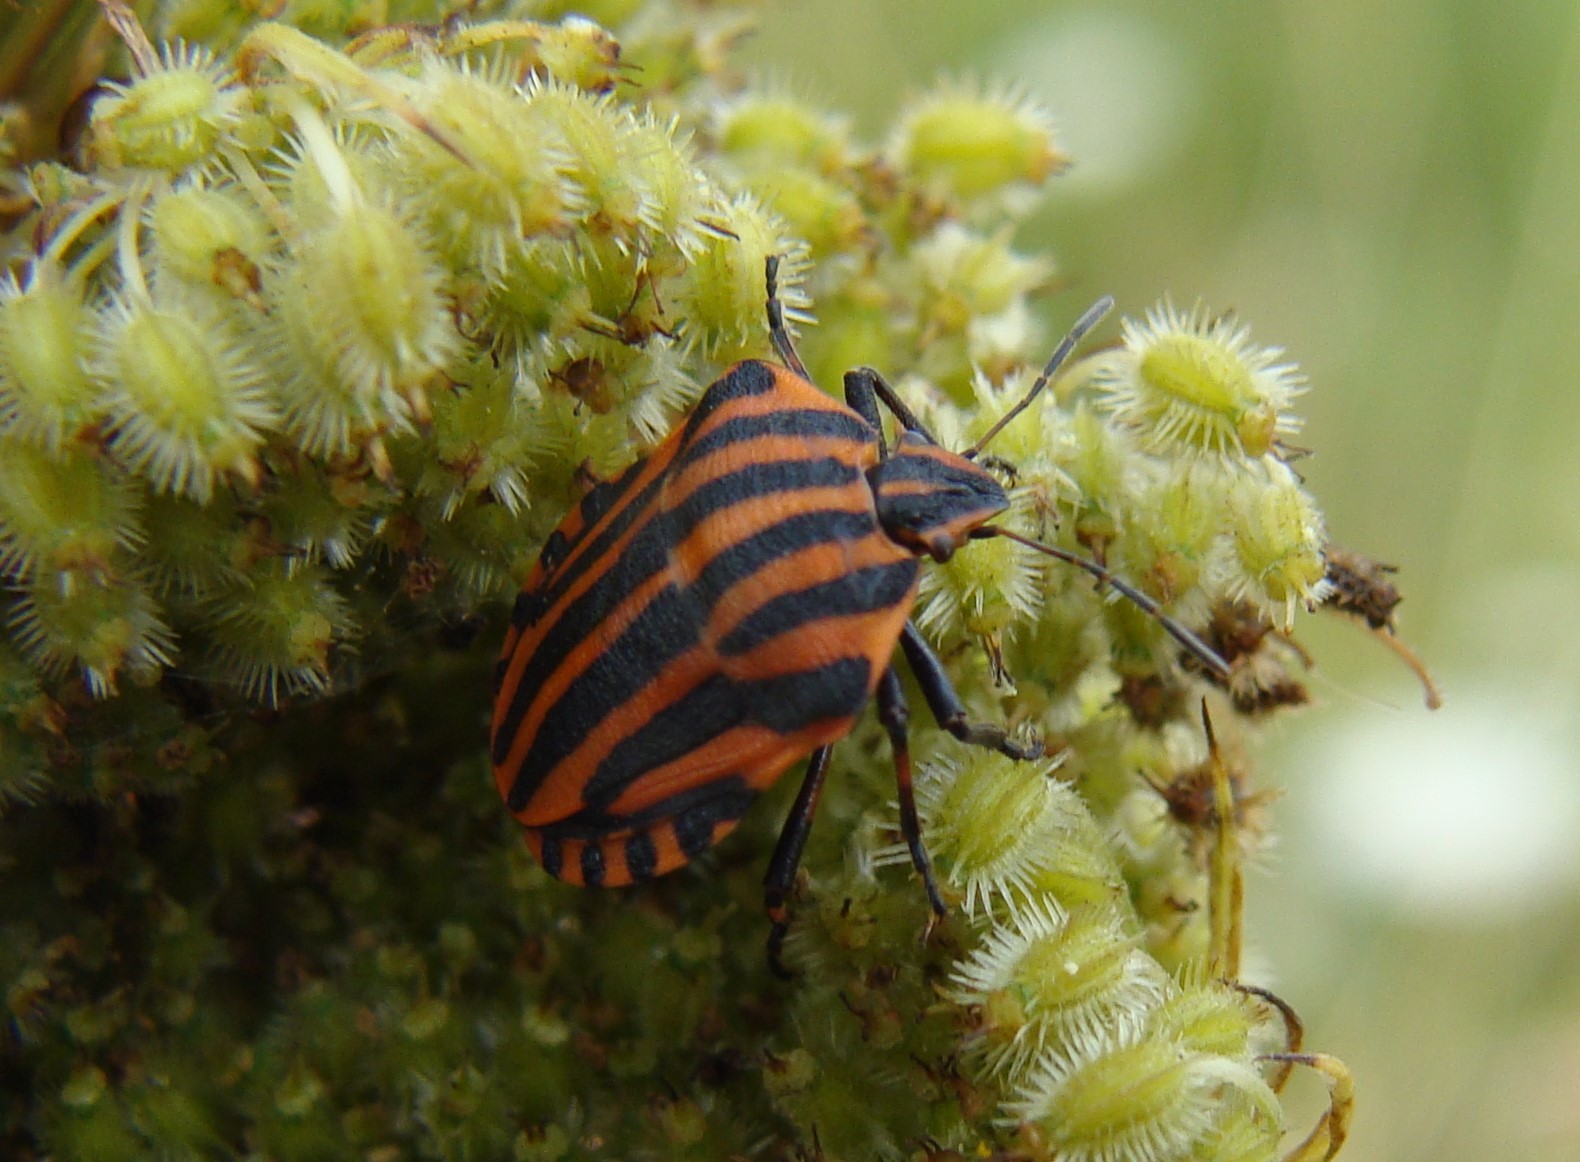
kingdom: Animalia
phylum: Arthropoda
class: Insecta
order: Hemiptera
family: Pentatomidae
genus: Graphosoma
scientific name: Graphosoma italicum
